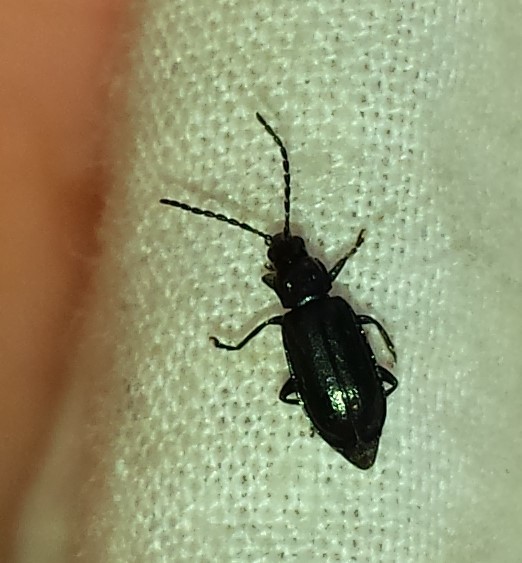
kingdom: Animalia
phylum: Arthropoda
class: Insecta
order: Coleoptera
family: Chrysomelidae
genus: Diabrotica
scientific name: Diabrotica cristata
